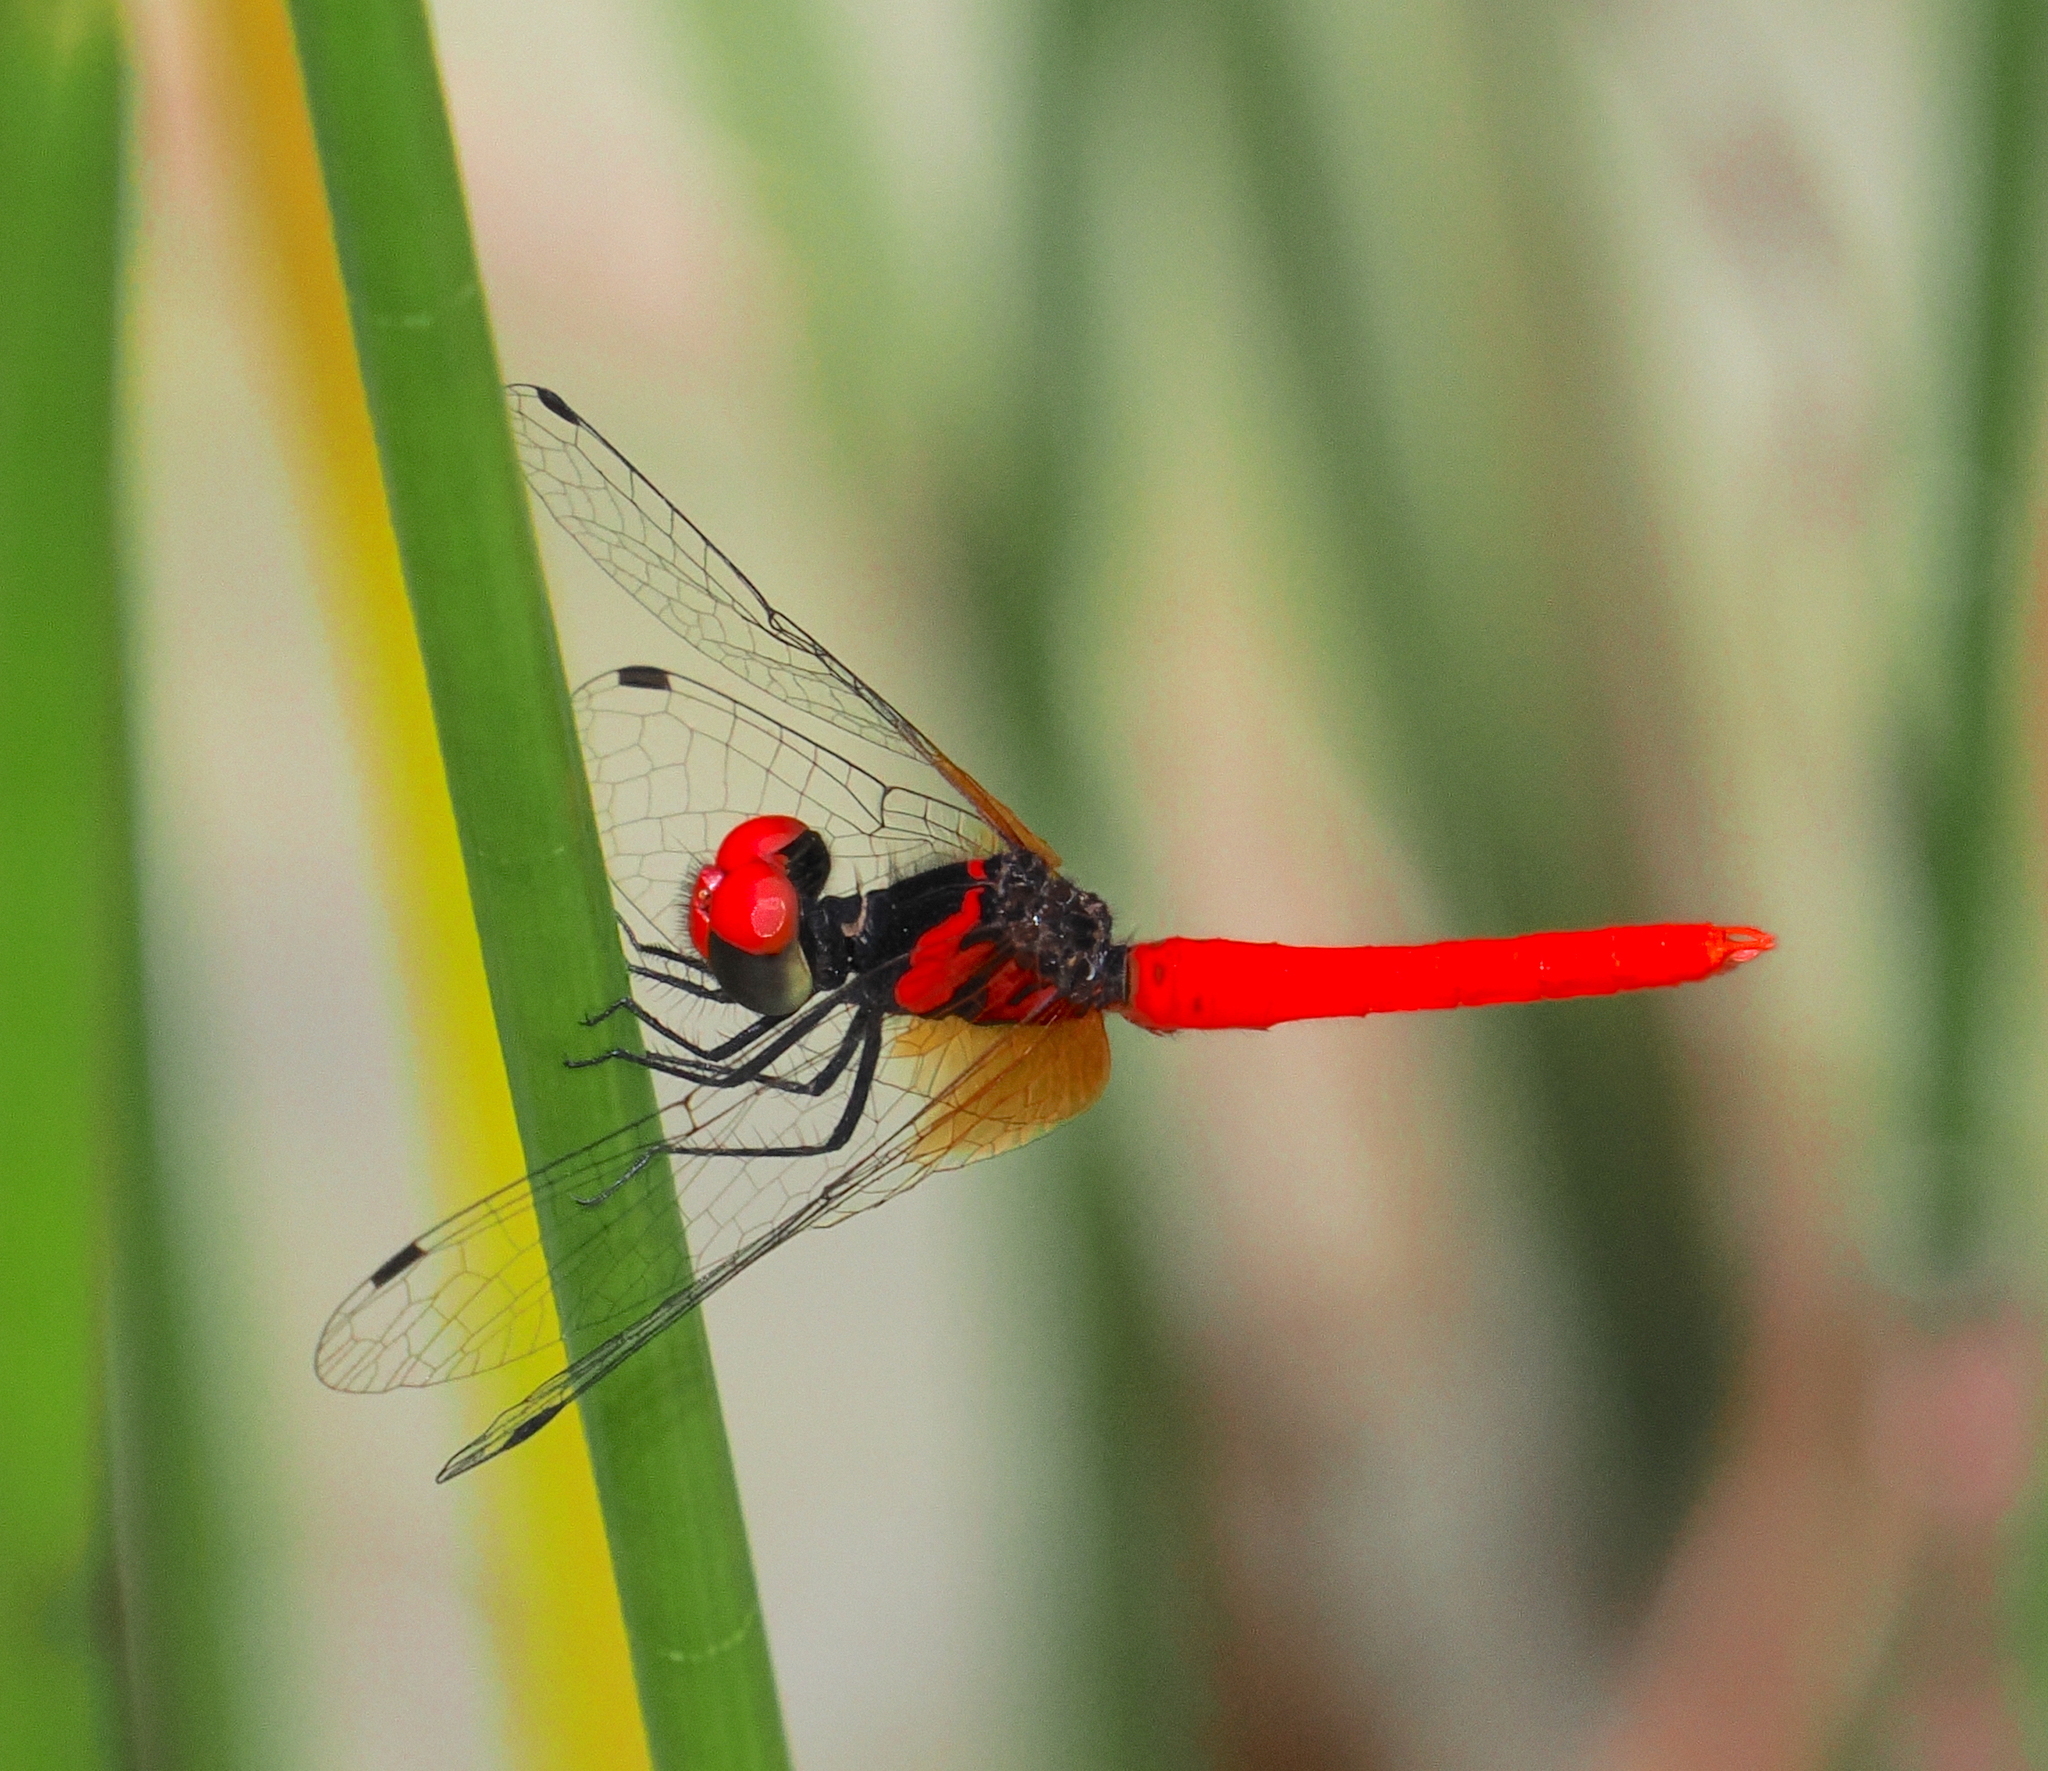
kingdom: Animalia
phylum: Arthropoda
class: Insecta
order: Odonata
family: Libellulidae
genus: Nannophya
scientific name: Nannophya pygmaea
